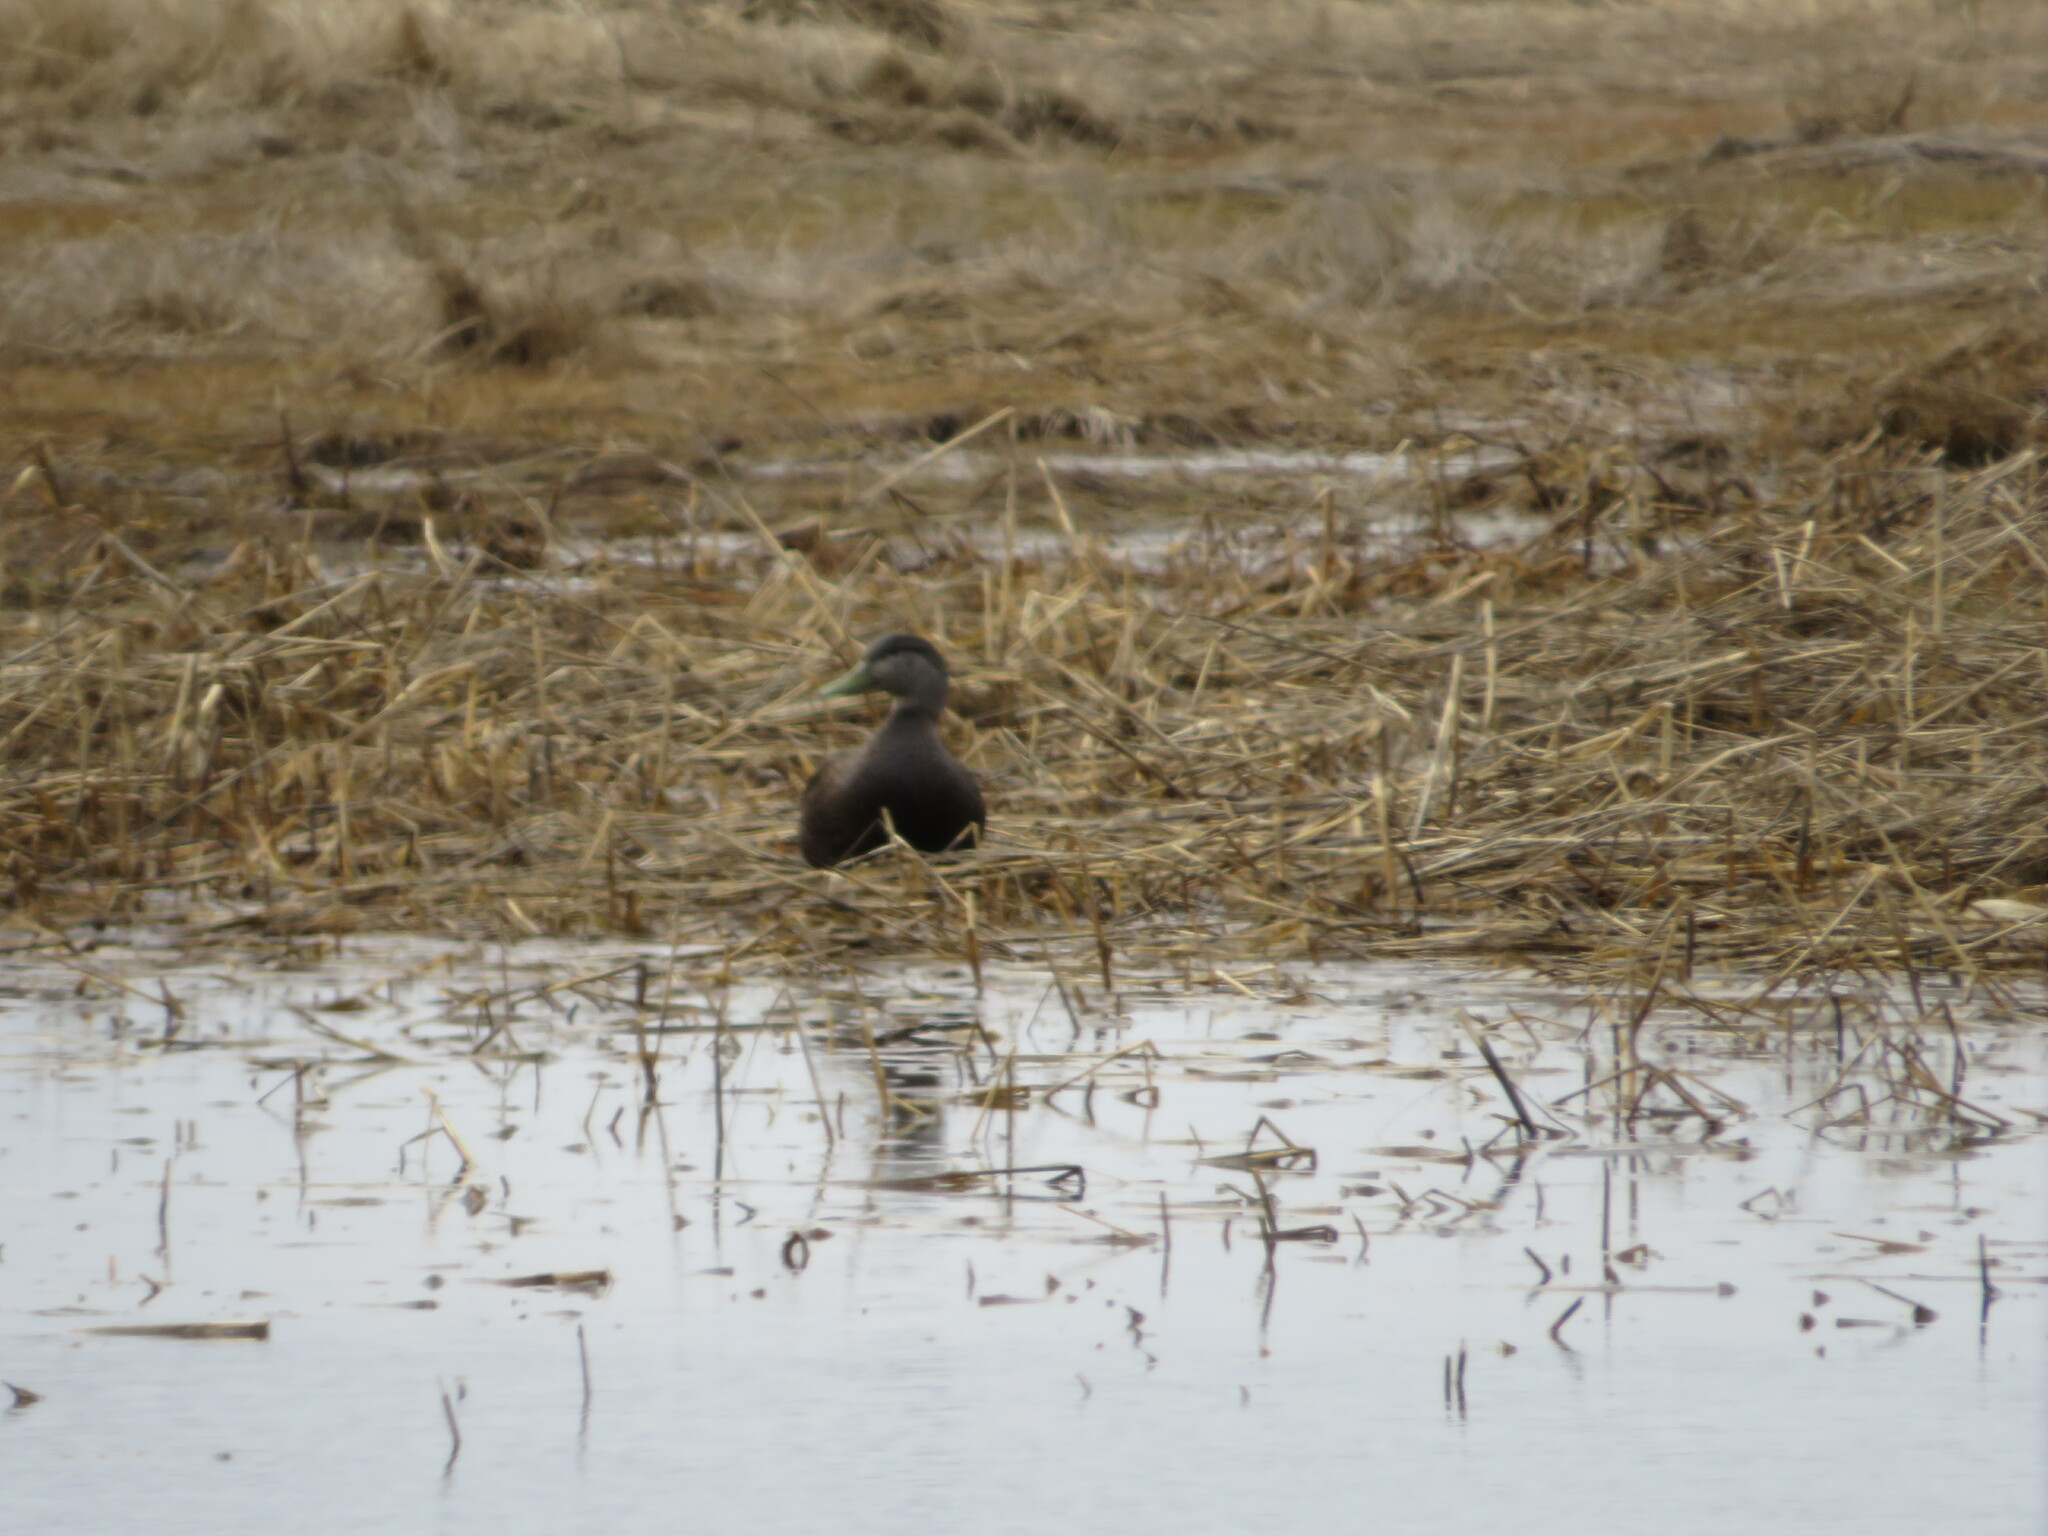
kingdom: Animalia
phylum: Chordata
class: Aves
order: Anseriformes
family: Anatidae
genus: Anas
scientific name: Anas rubripes
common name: American black duck
